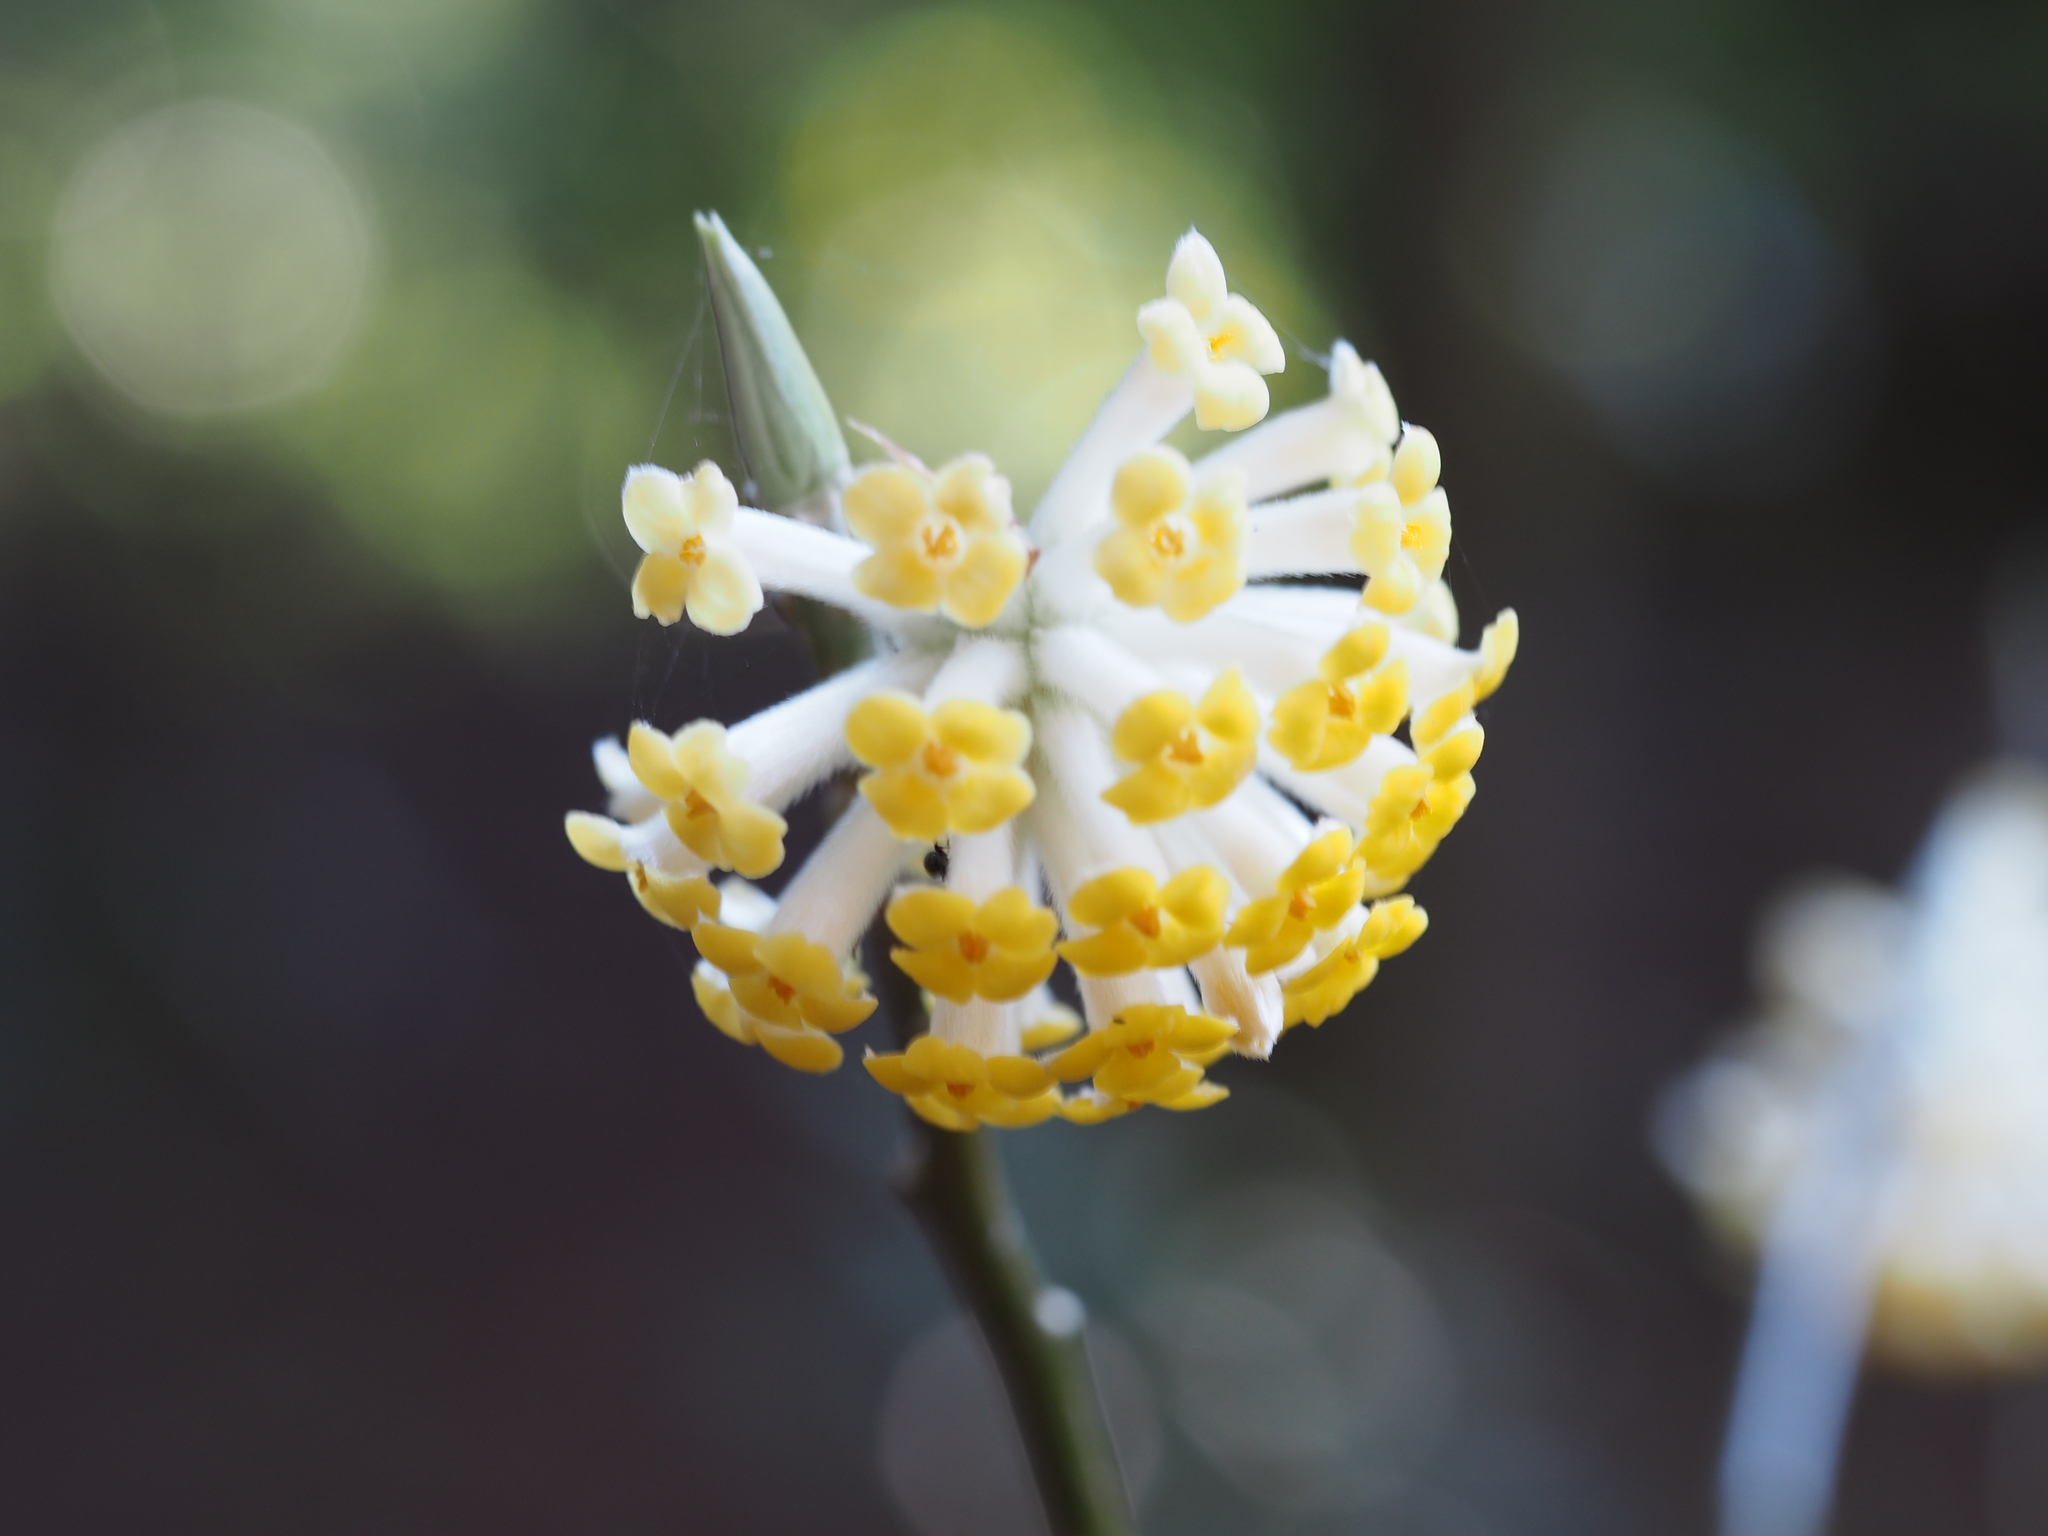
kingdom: Plantae
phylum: Tracheophyta
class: Magnoliopsida
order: Malvales
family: Thymelaeaceae
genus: Edgeworthia
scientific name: Edgeworthia chrysantha
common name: Oriental paperbush
